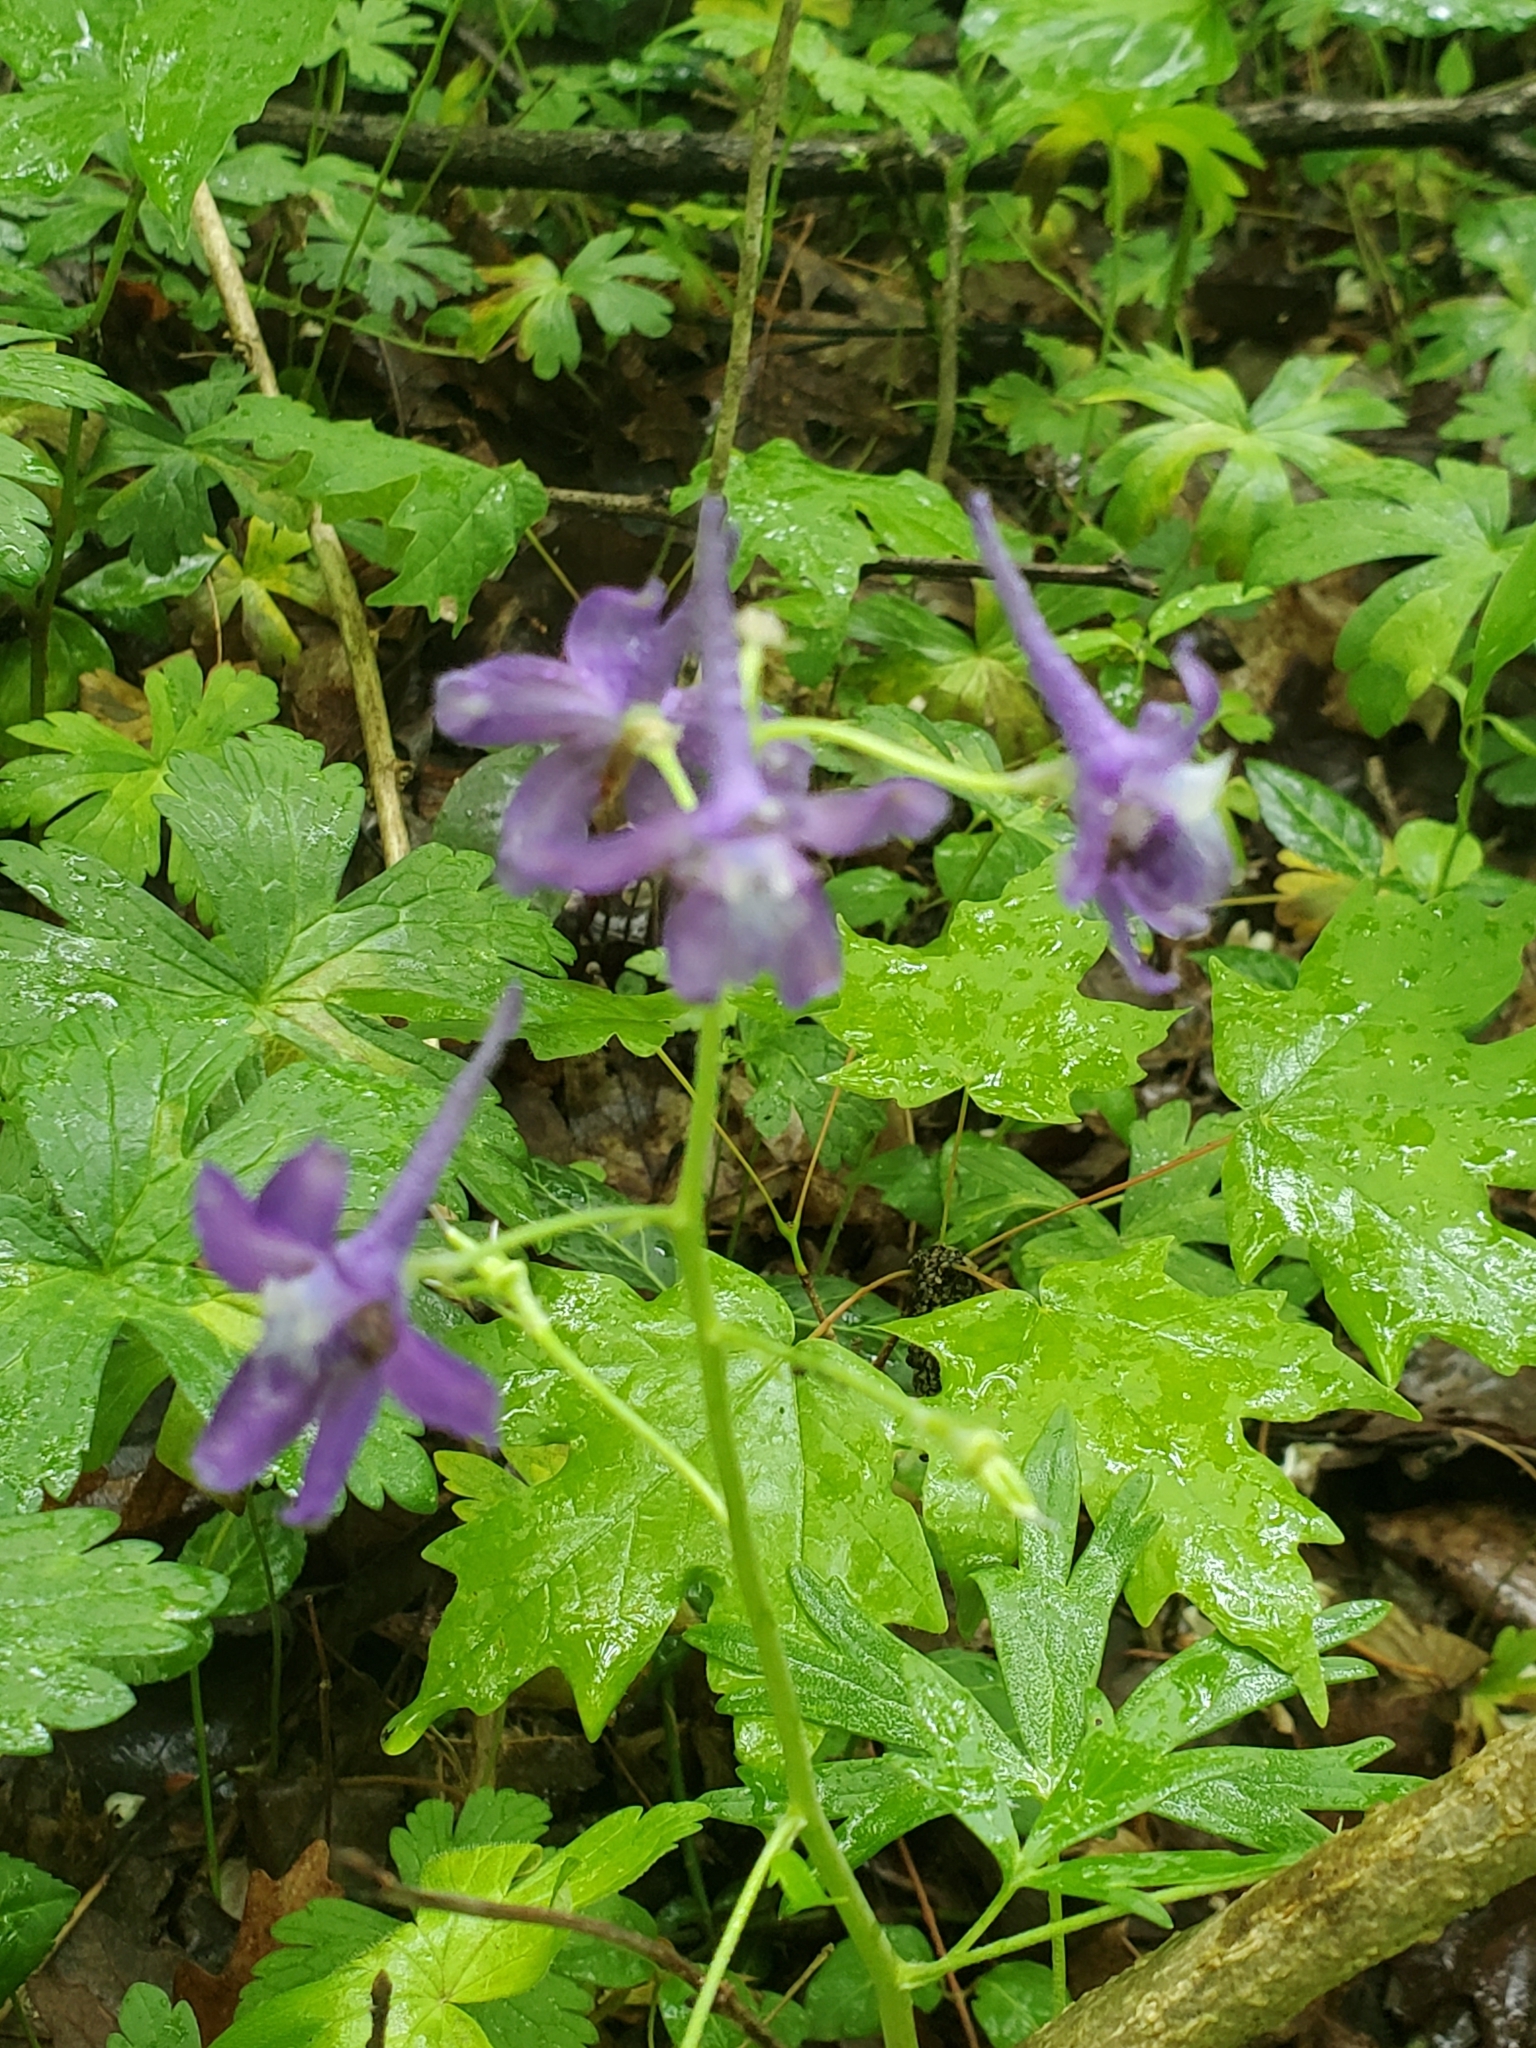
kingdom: Plantae
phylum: Tracheophyta
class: Magnoliopsida
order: Ranunculales
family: Ranunculaceae
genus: Delphinium
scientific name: Delphinium tricorne
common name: Dwarf larkspur
